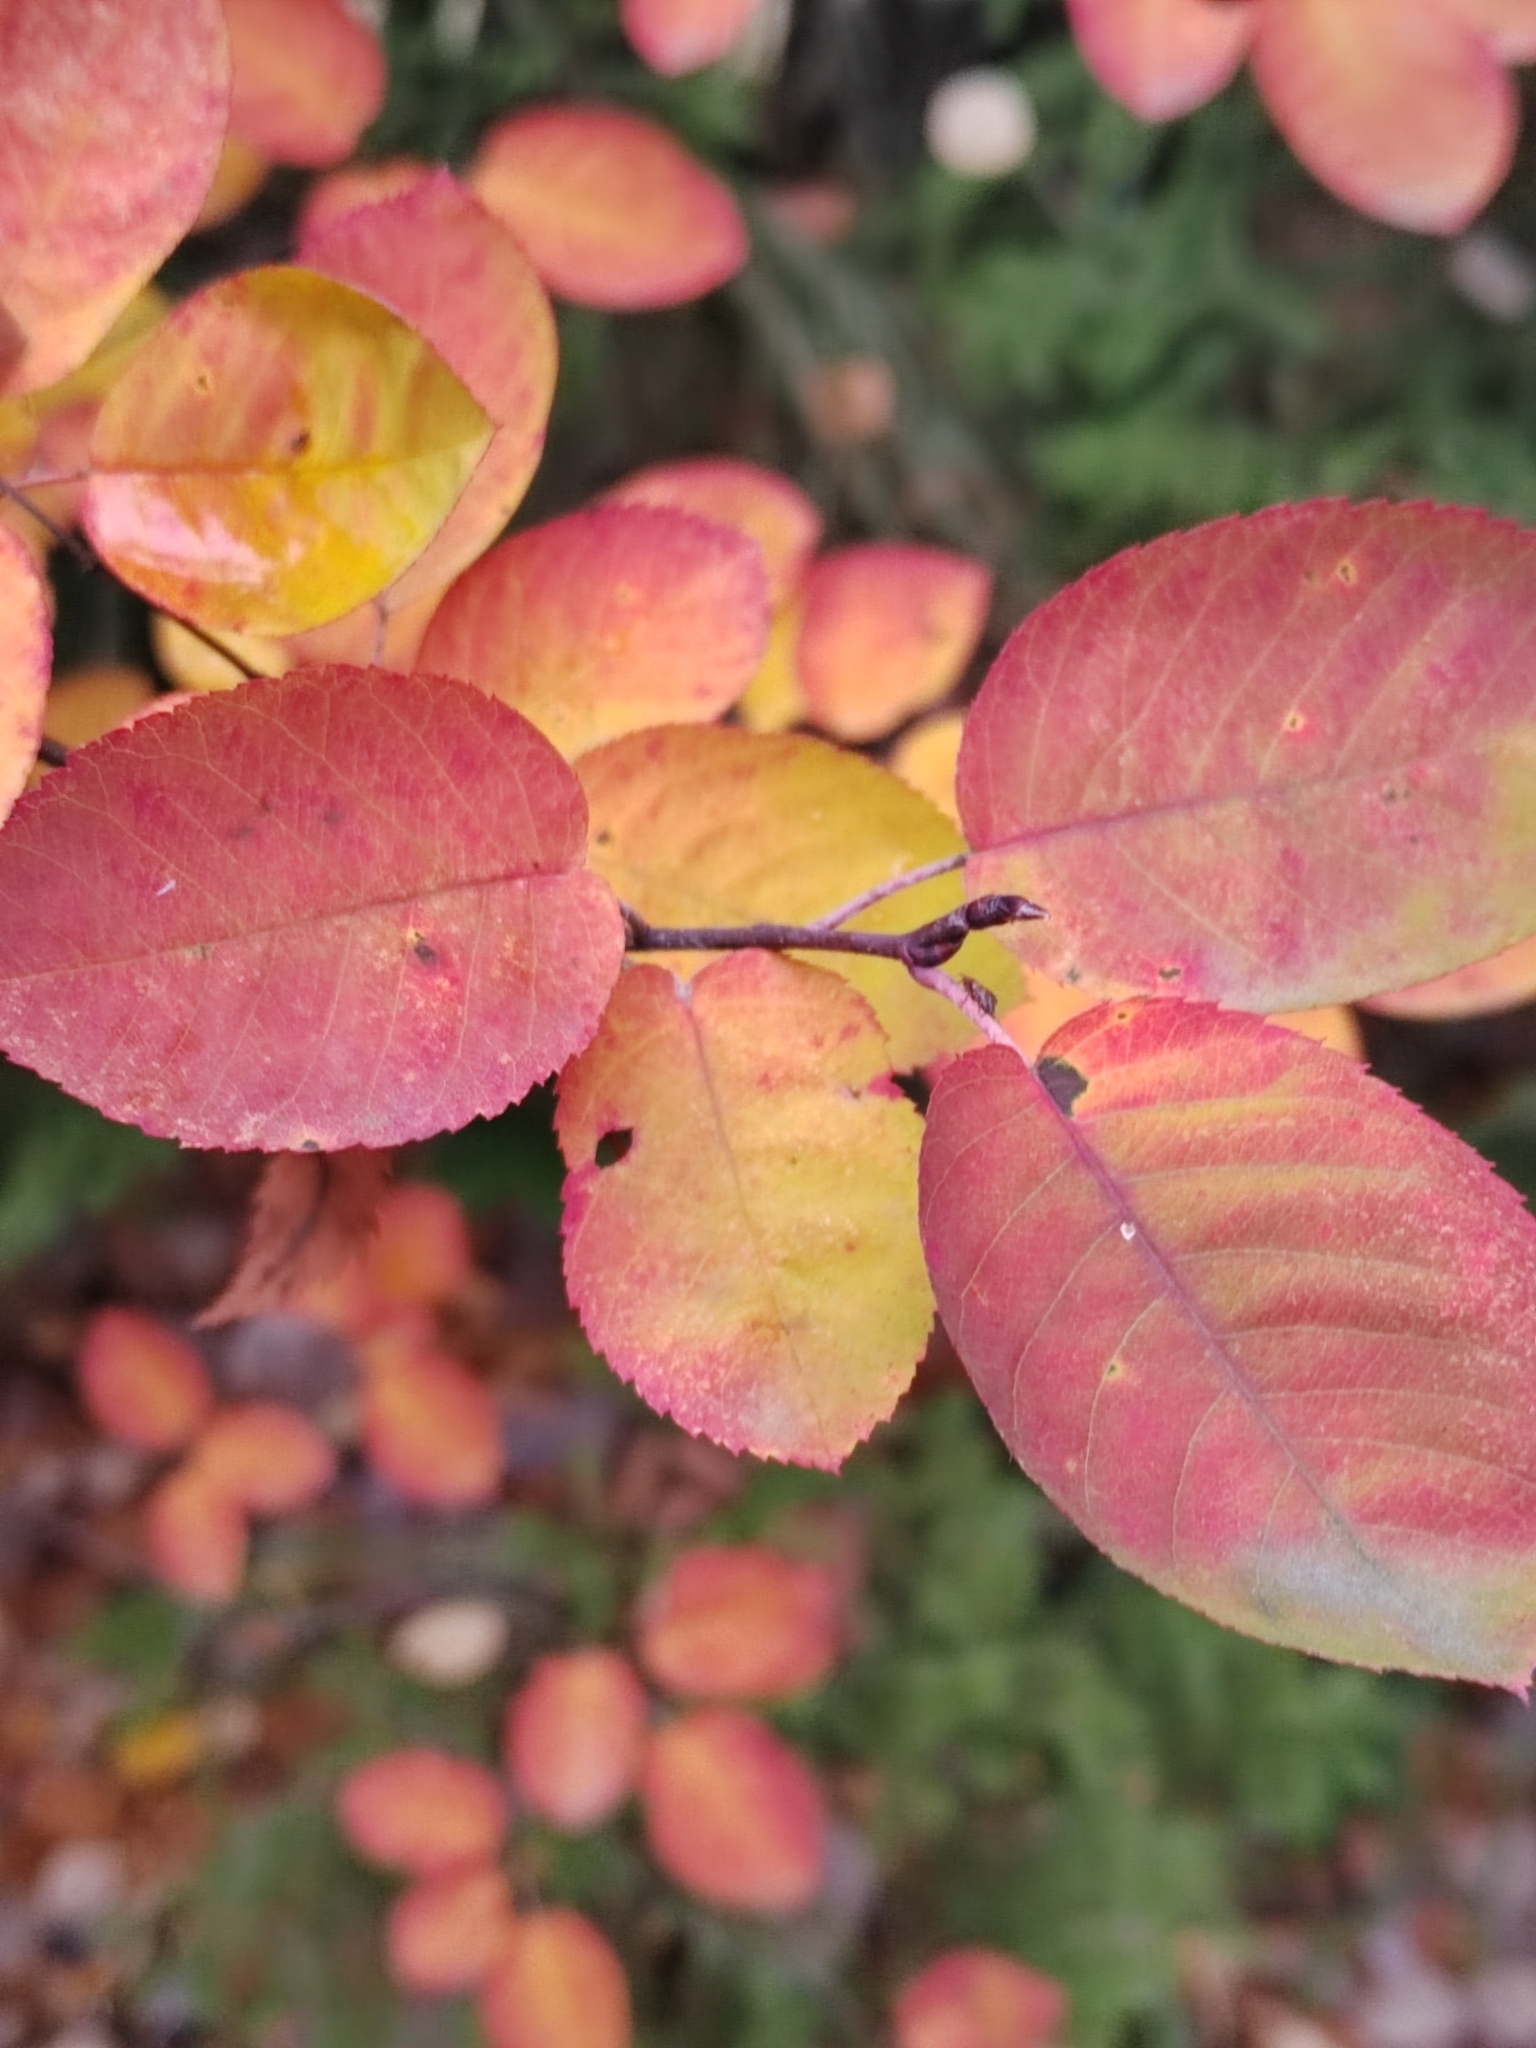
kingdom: Plantae
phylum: Tracheophyta
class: Magnoliopsida
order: Rosales
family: Rosaceae
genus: Amelanchier
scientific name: Amelanchier
